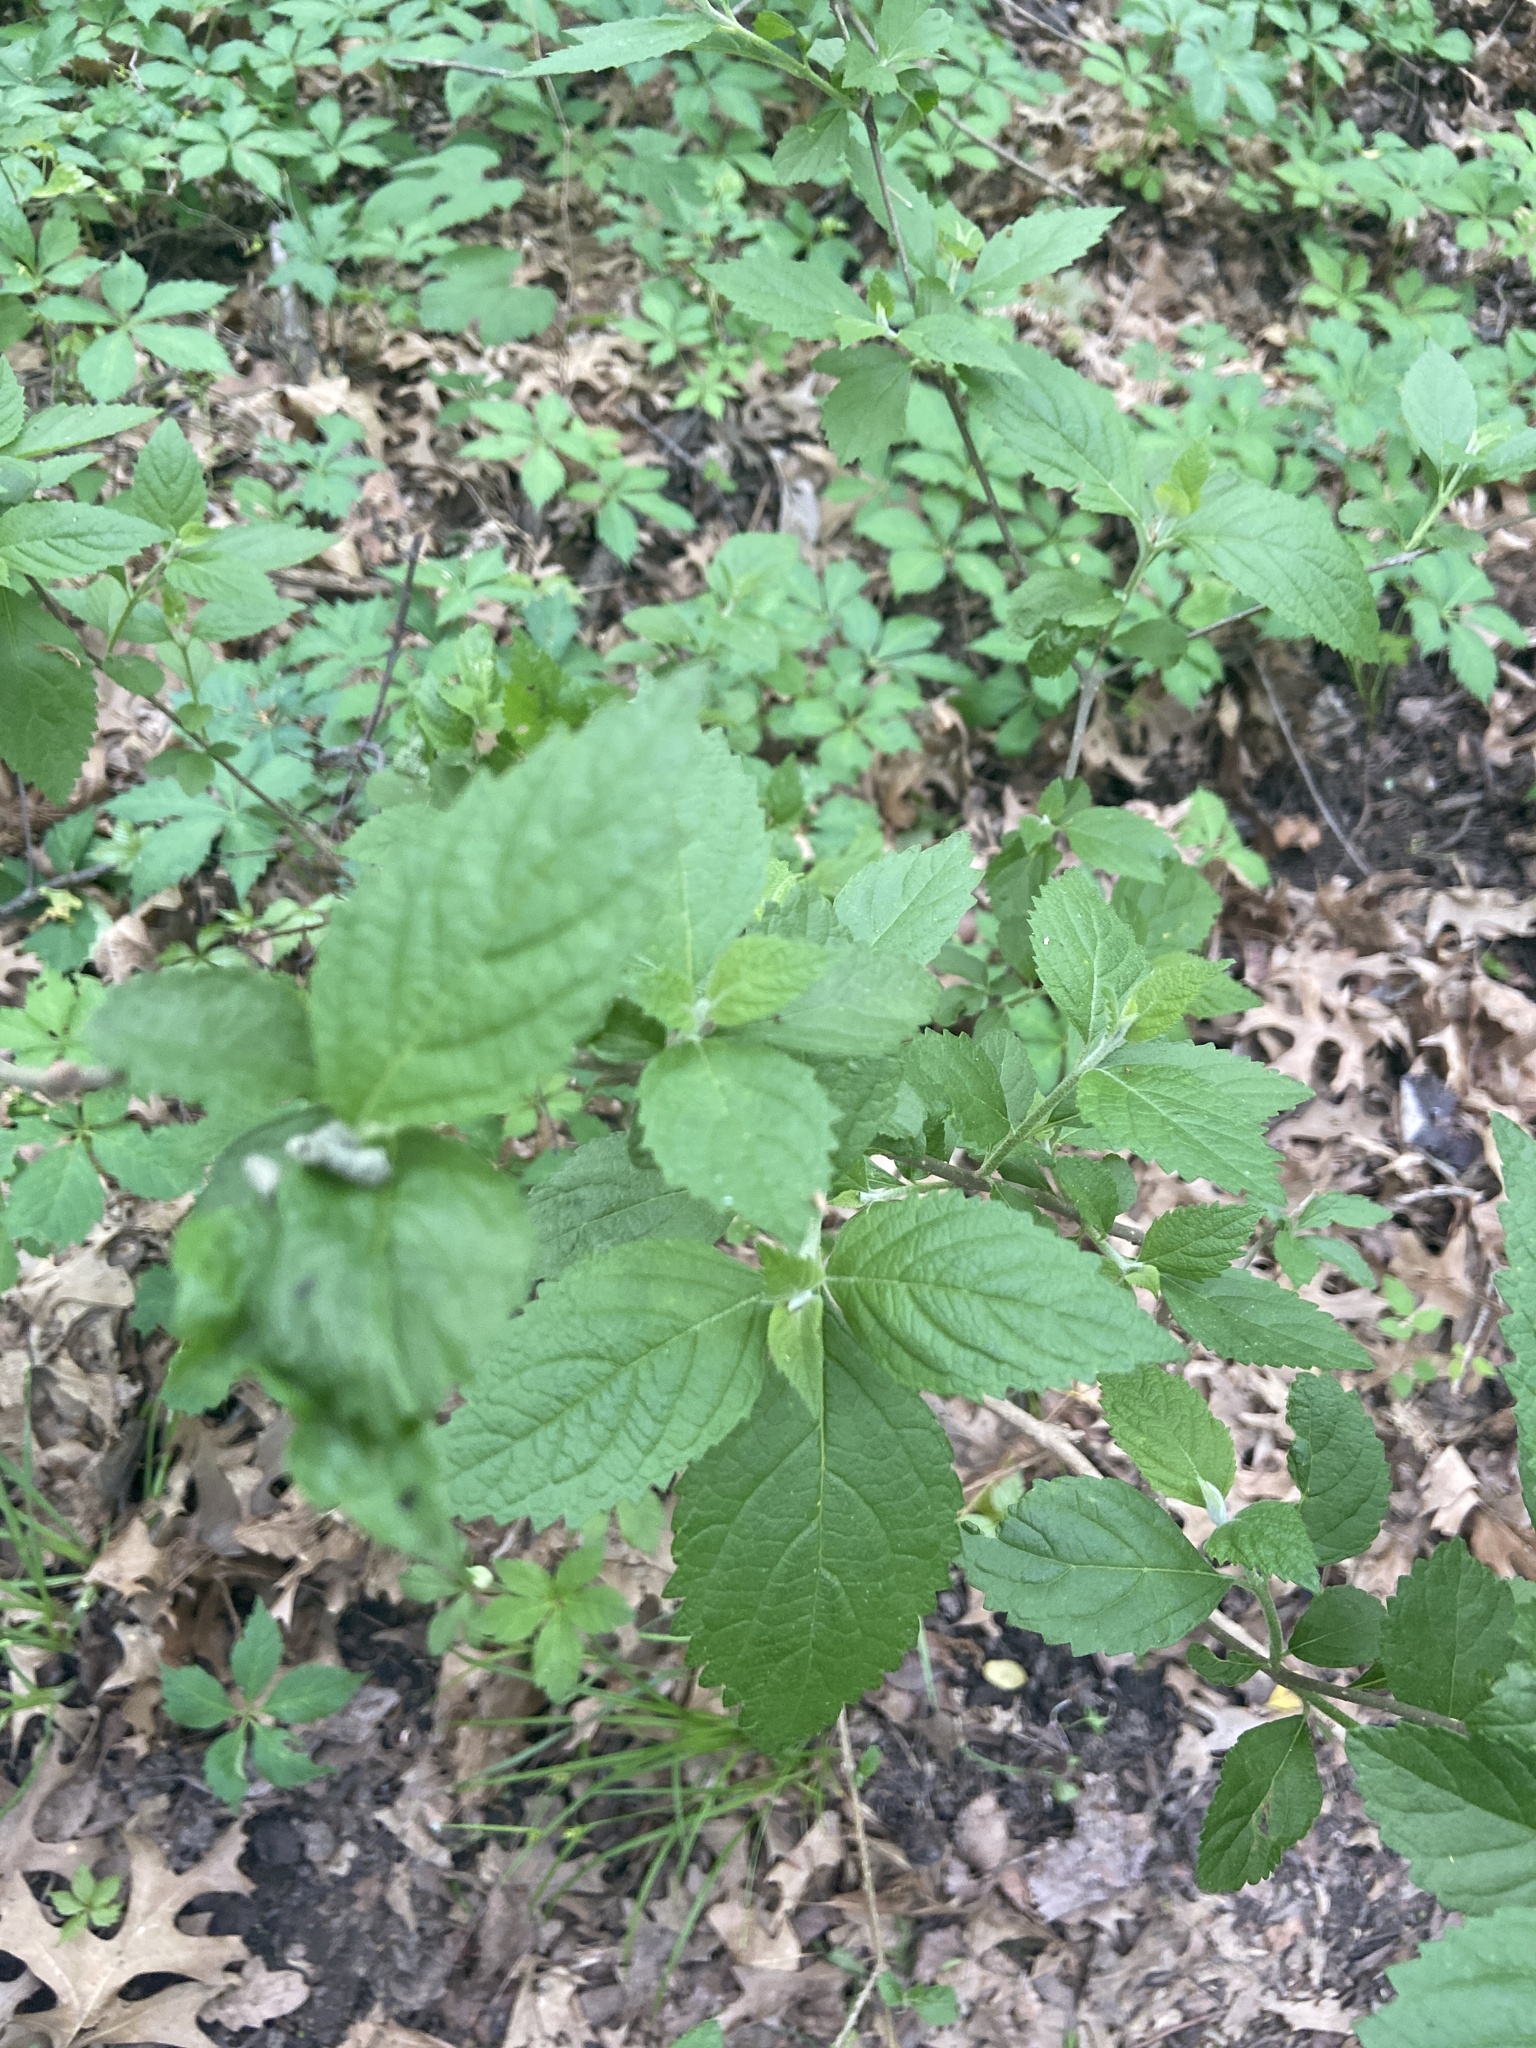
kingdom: Plantae
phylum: Tracheophyta
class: Magnoliopsida
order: Lamiales
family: Lamiaceae
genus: Callicarpa
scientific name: Callicarpa americana
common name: American beautyberry
